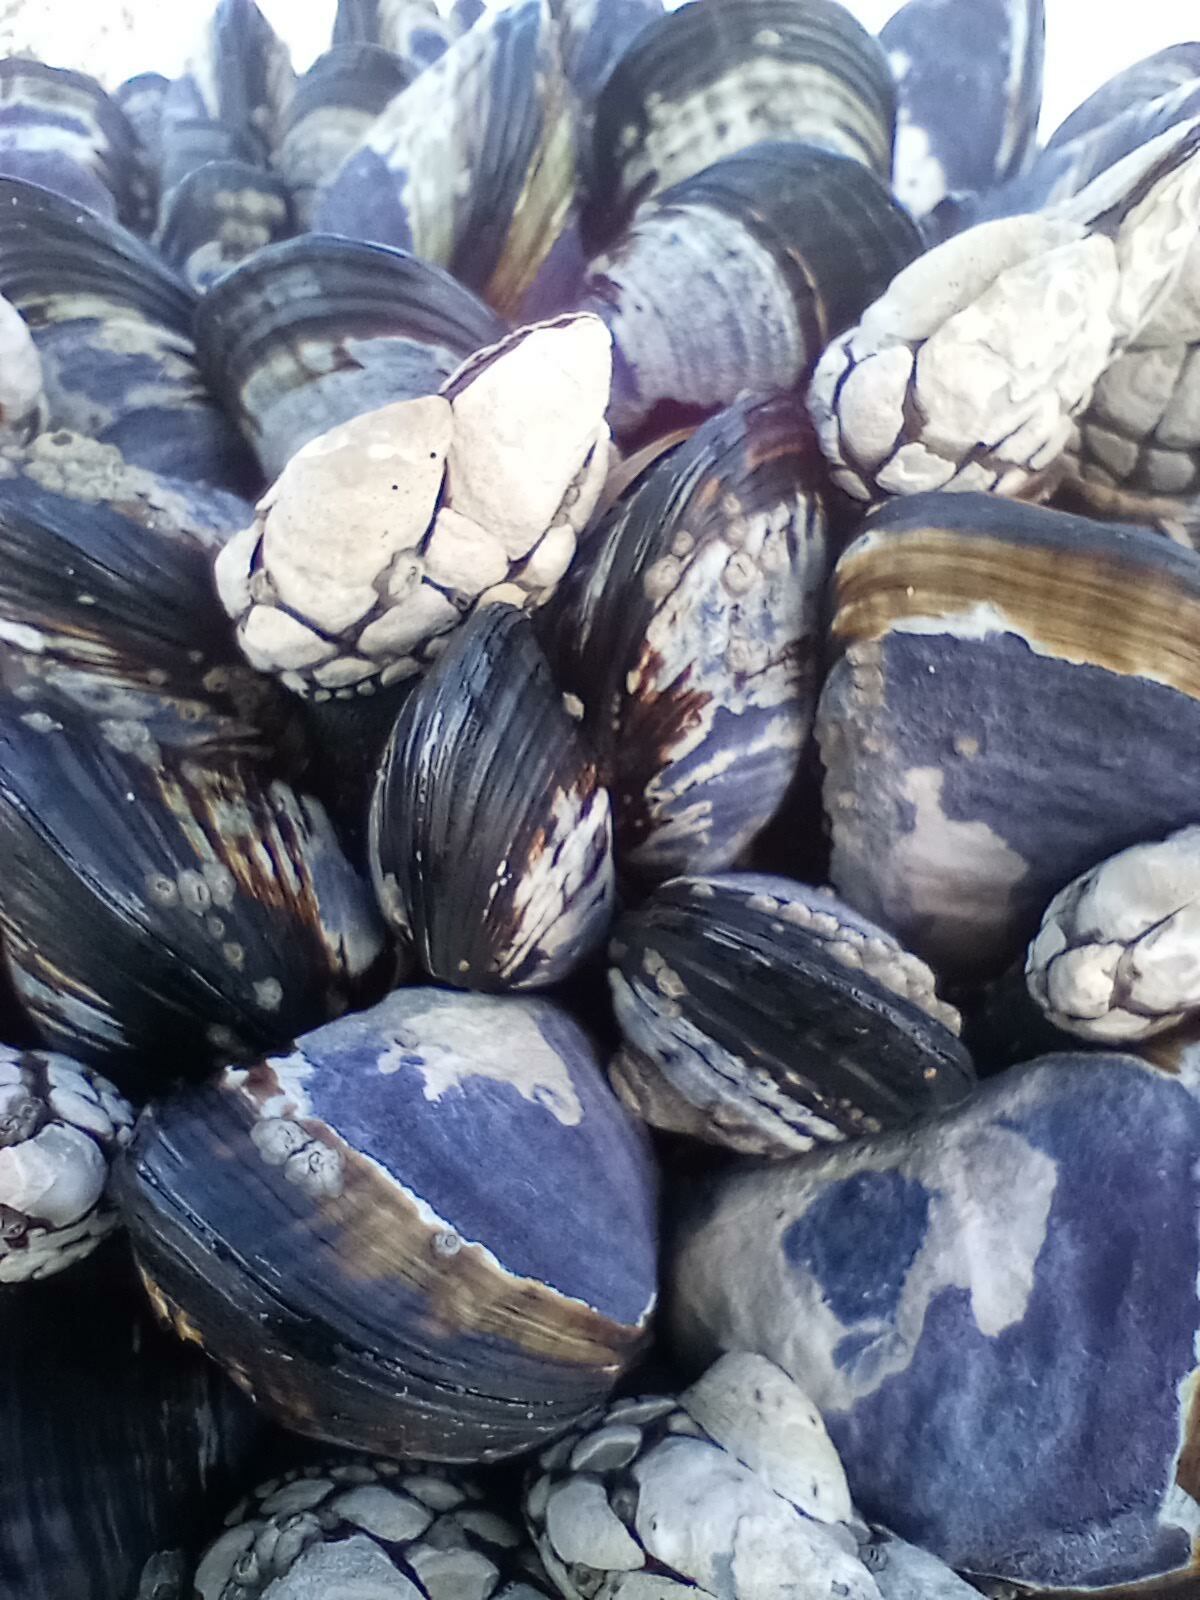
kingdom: Animalia
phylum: Mollusca
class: Bivalvia
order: Mytilida
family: Mytilidae
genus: Mytilus
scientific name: Mytilus californianus
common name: California mussel
